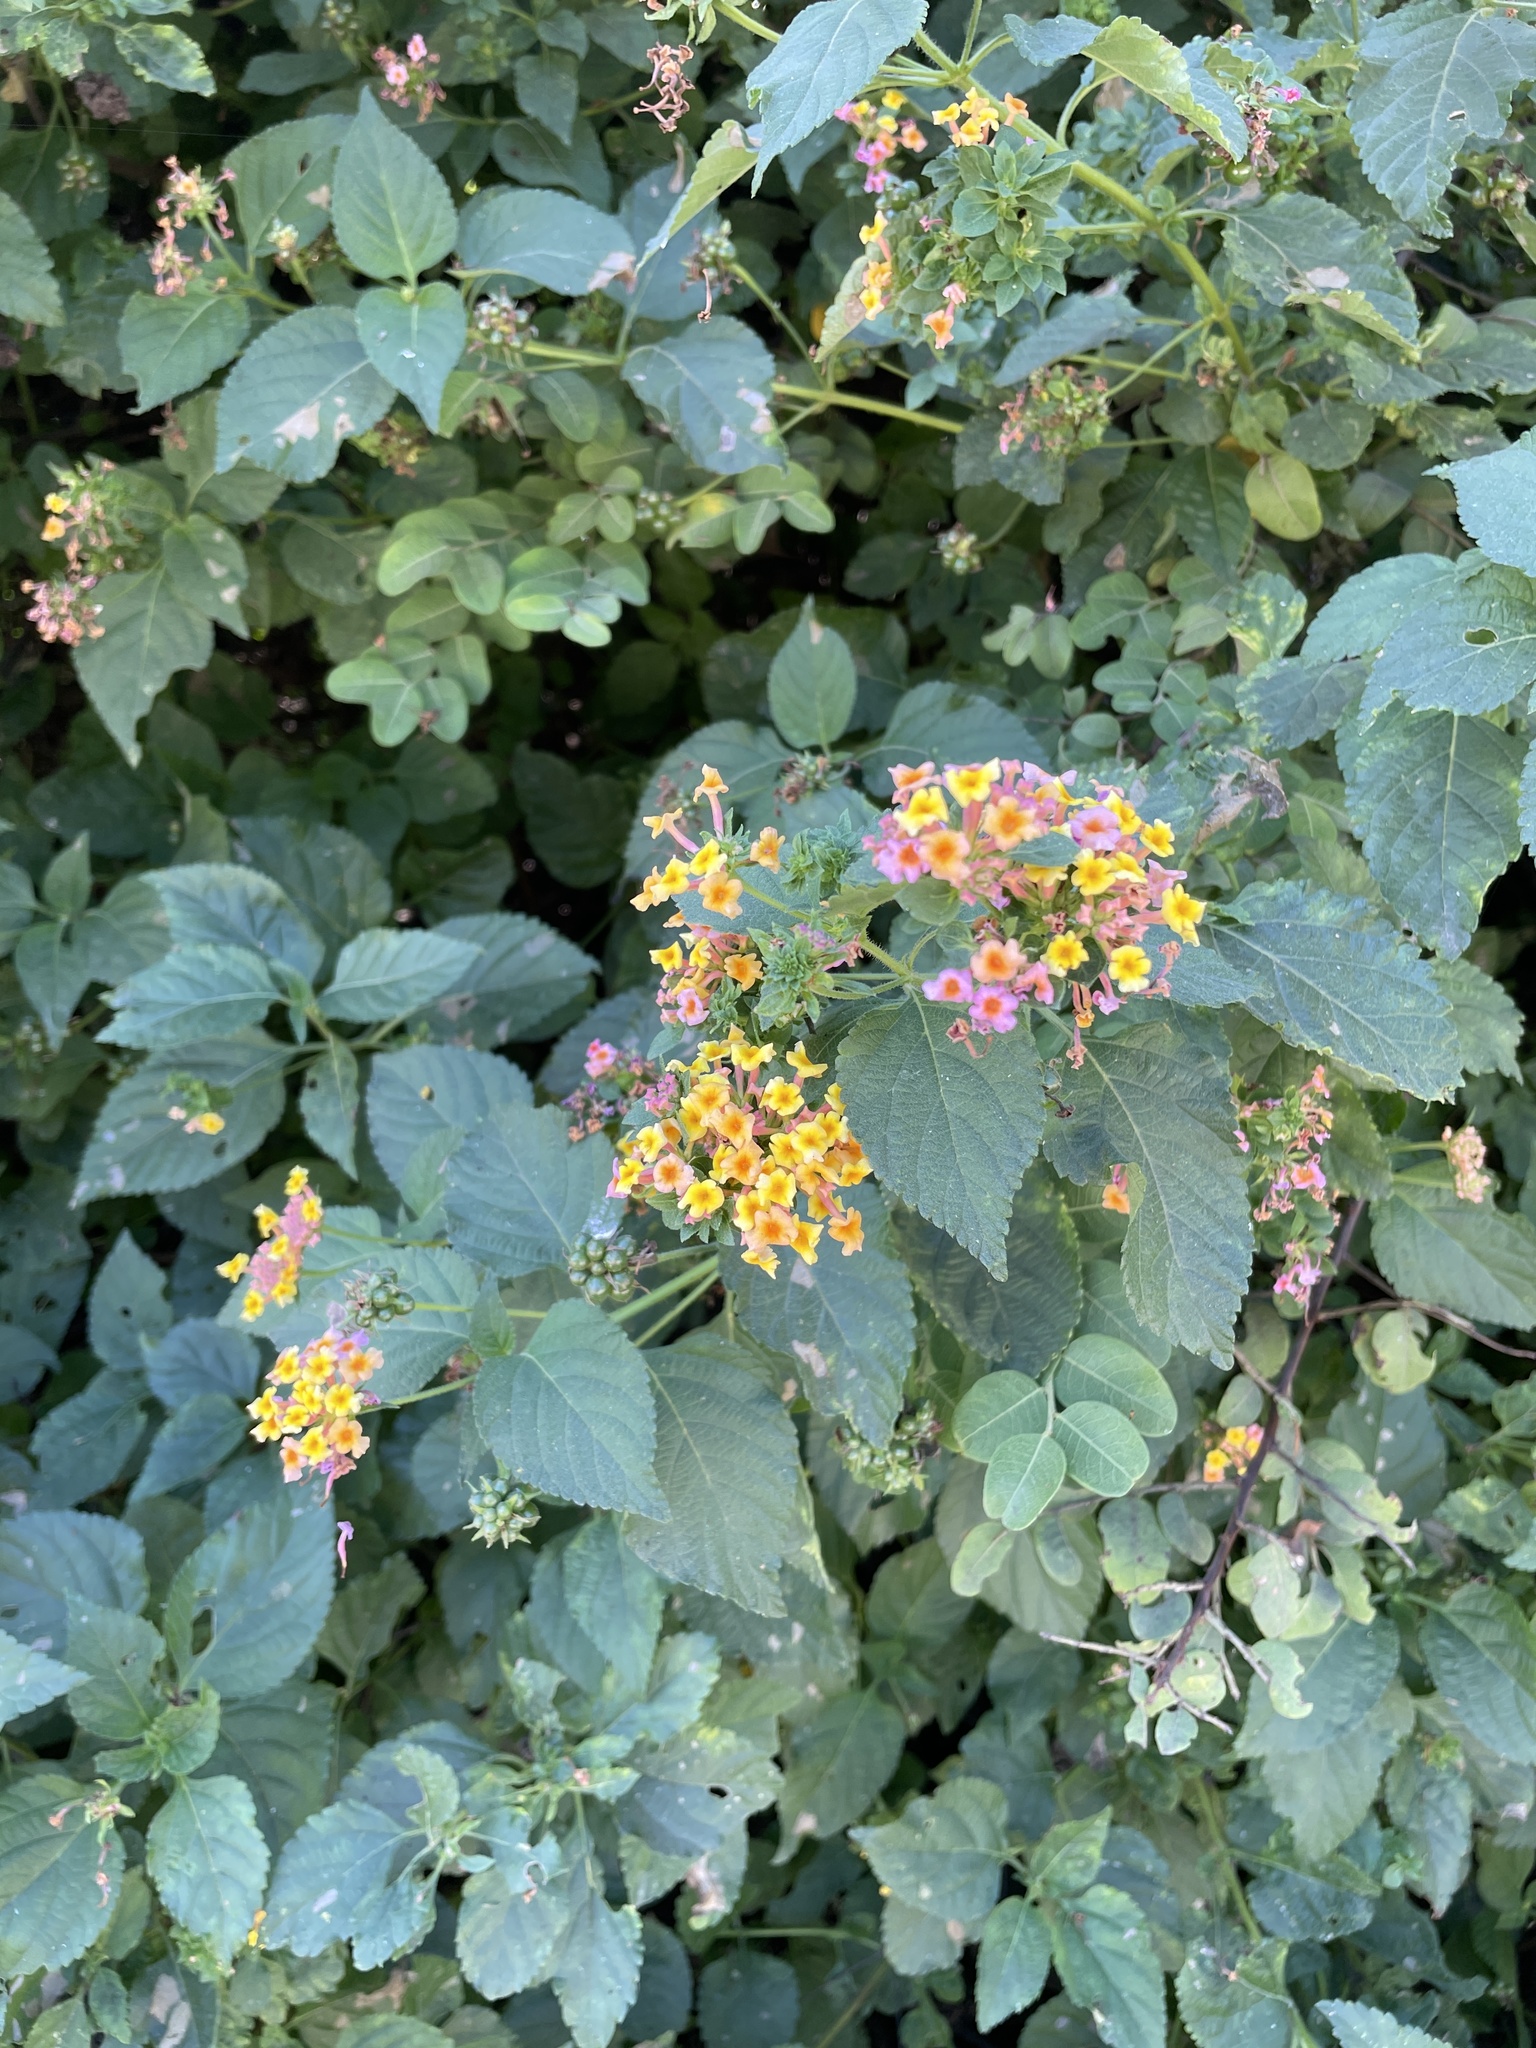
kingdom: Plantae
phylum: Tracheophyta
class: Magnoliopsida
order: Lamiales
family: Verbenaceae
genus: Lantana
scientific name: Lantana camara
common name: Lantana
